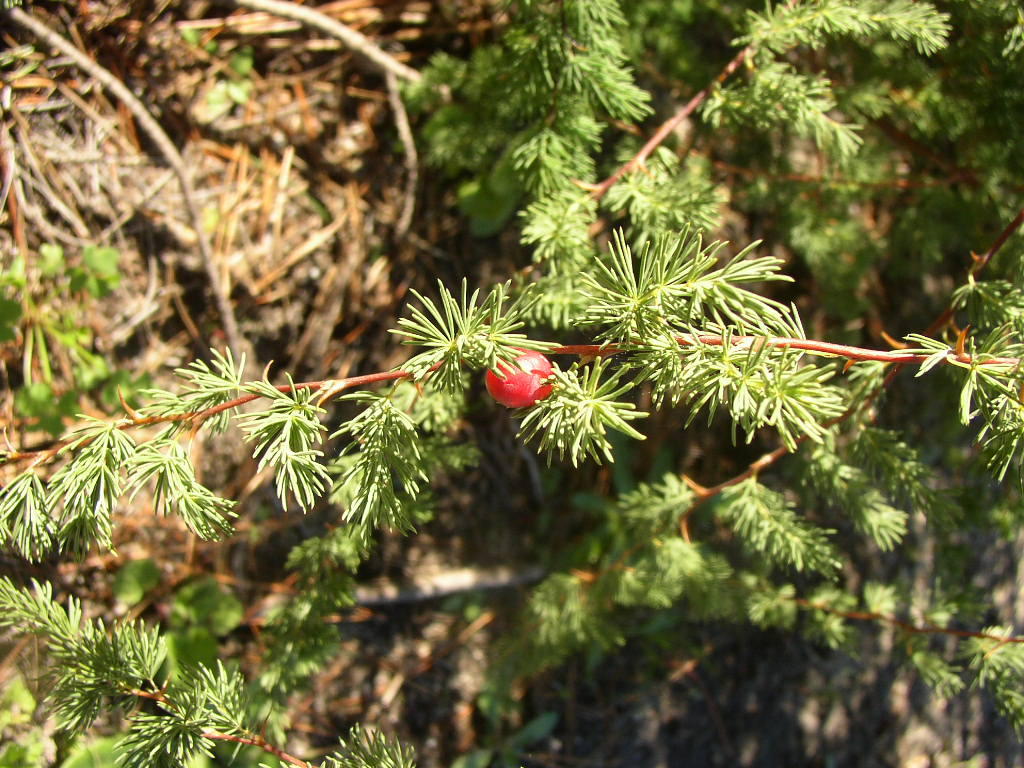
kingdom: Plantae
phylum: Tracheophyta
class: Liliopsida
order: Asparagales
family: Asparagaceae
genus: Asparagus
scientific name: Asparagus rubicundus
